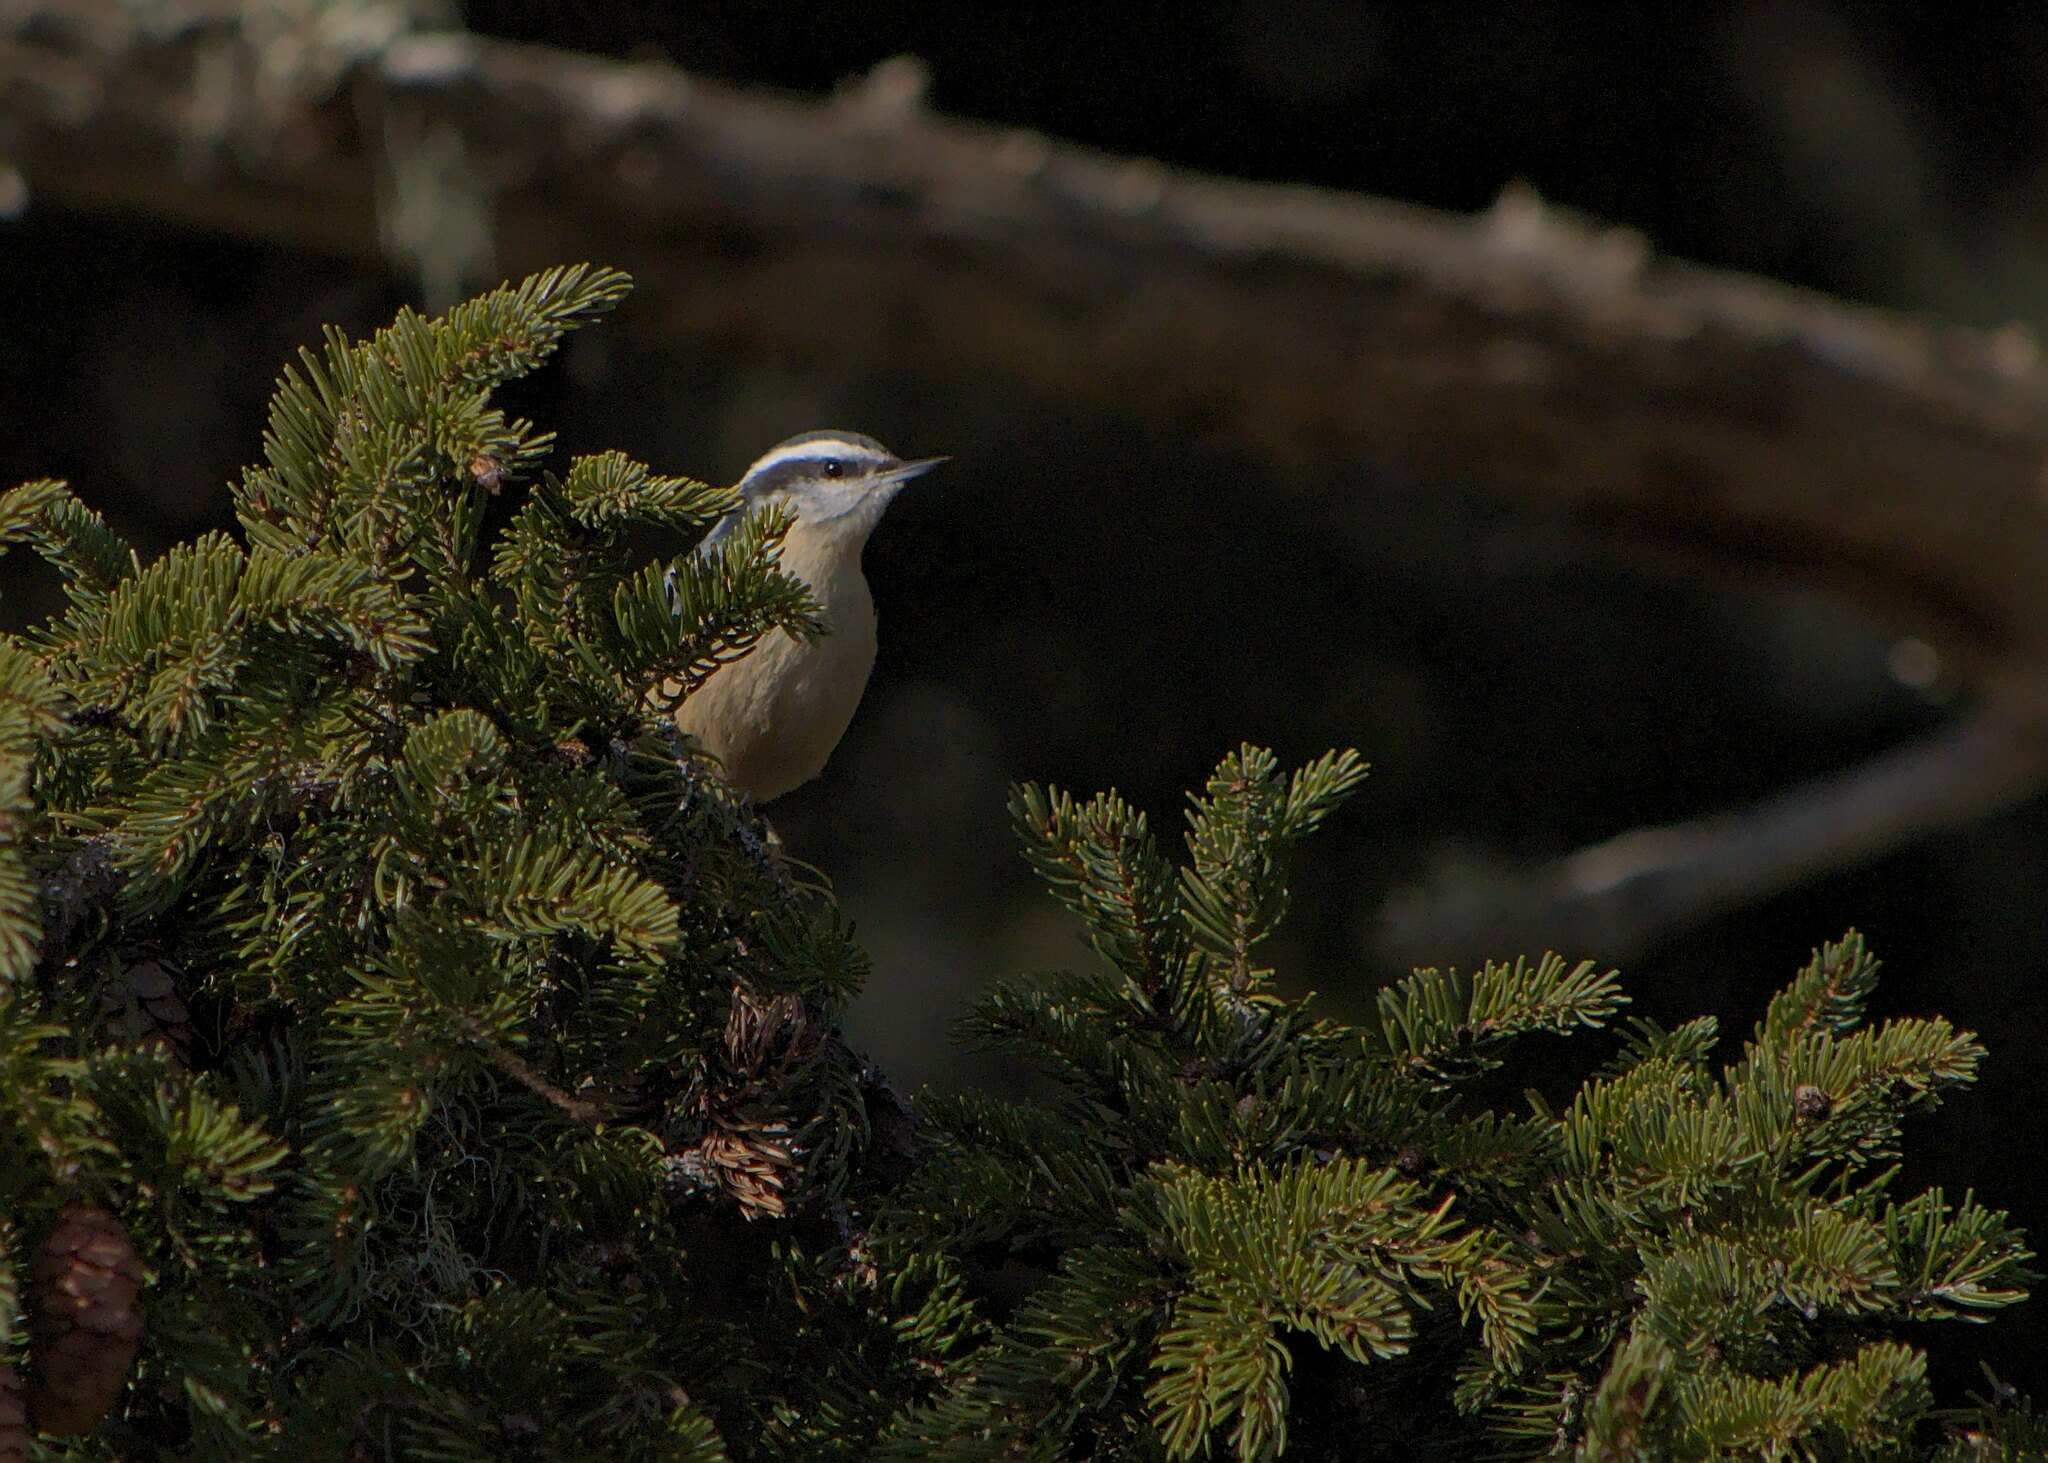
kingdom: Animalia
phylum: Chordata
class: Aves
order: Passeriformes
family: Sittidae
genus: Sitta
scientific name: Sitta canadensis
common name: Red-breasted nuthatch
